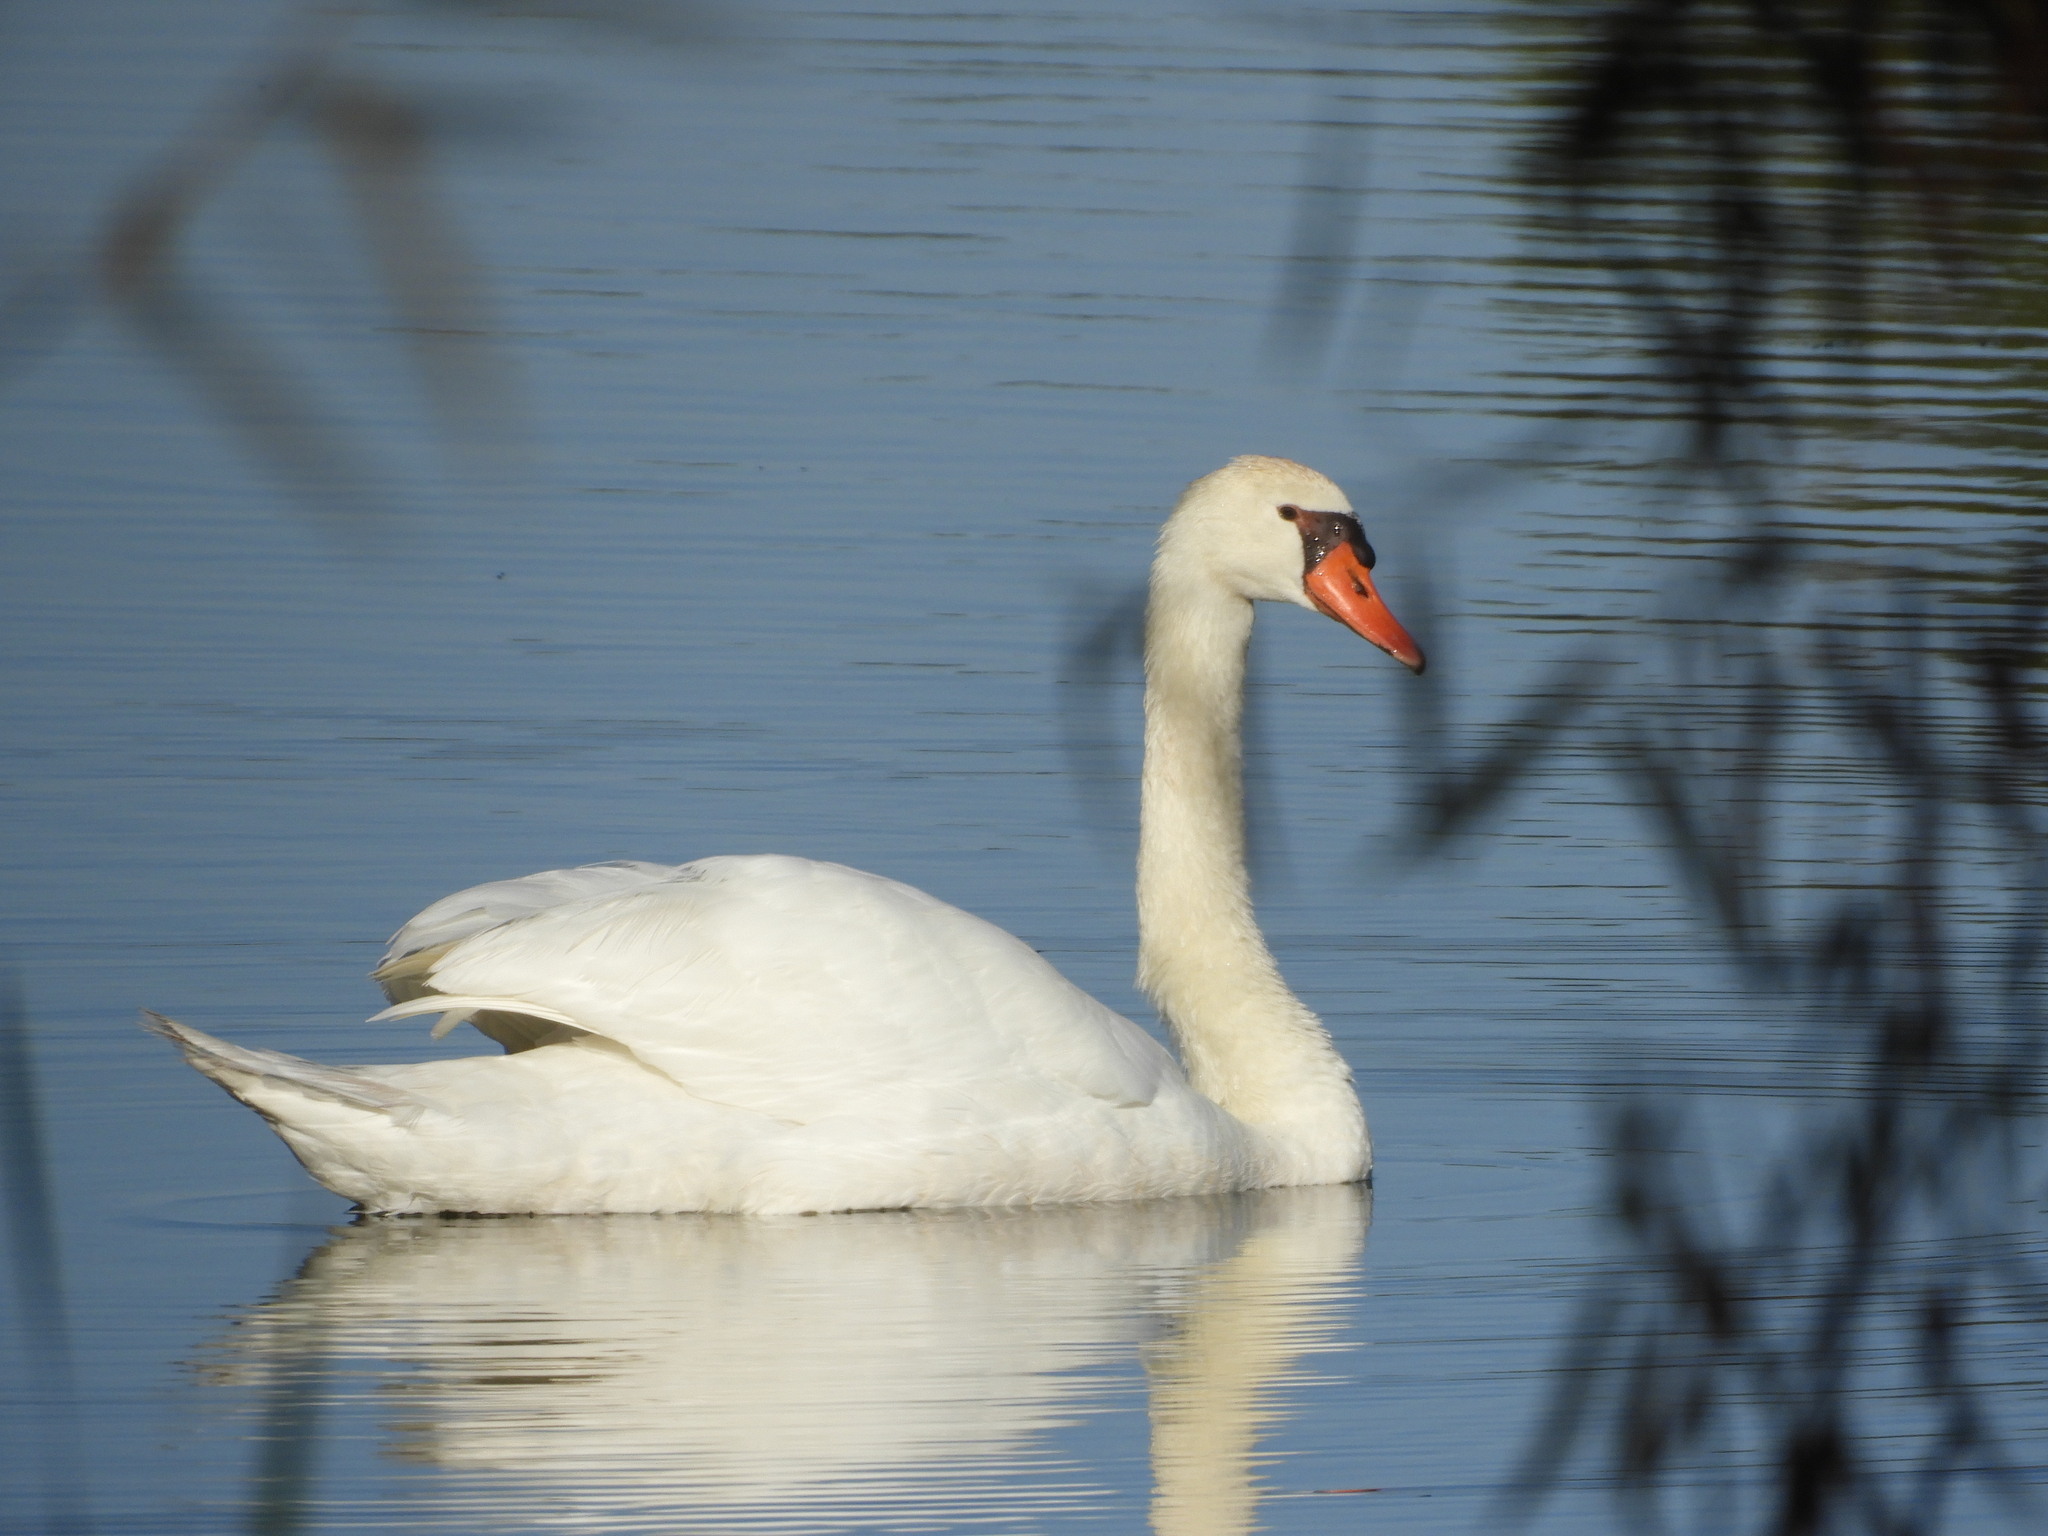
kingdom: Animalia
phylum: Chordata
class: Aves
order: Anseriformes
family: Anatidae
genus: Cygnus
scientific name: Cygnus olor
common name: Mute swan
